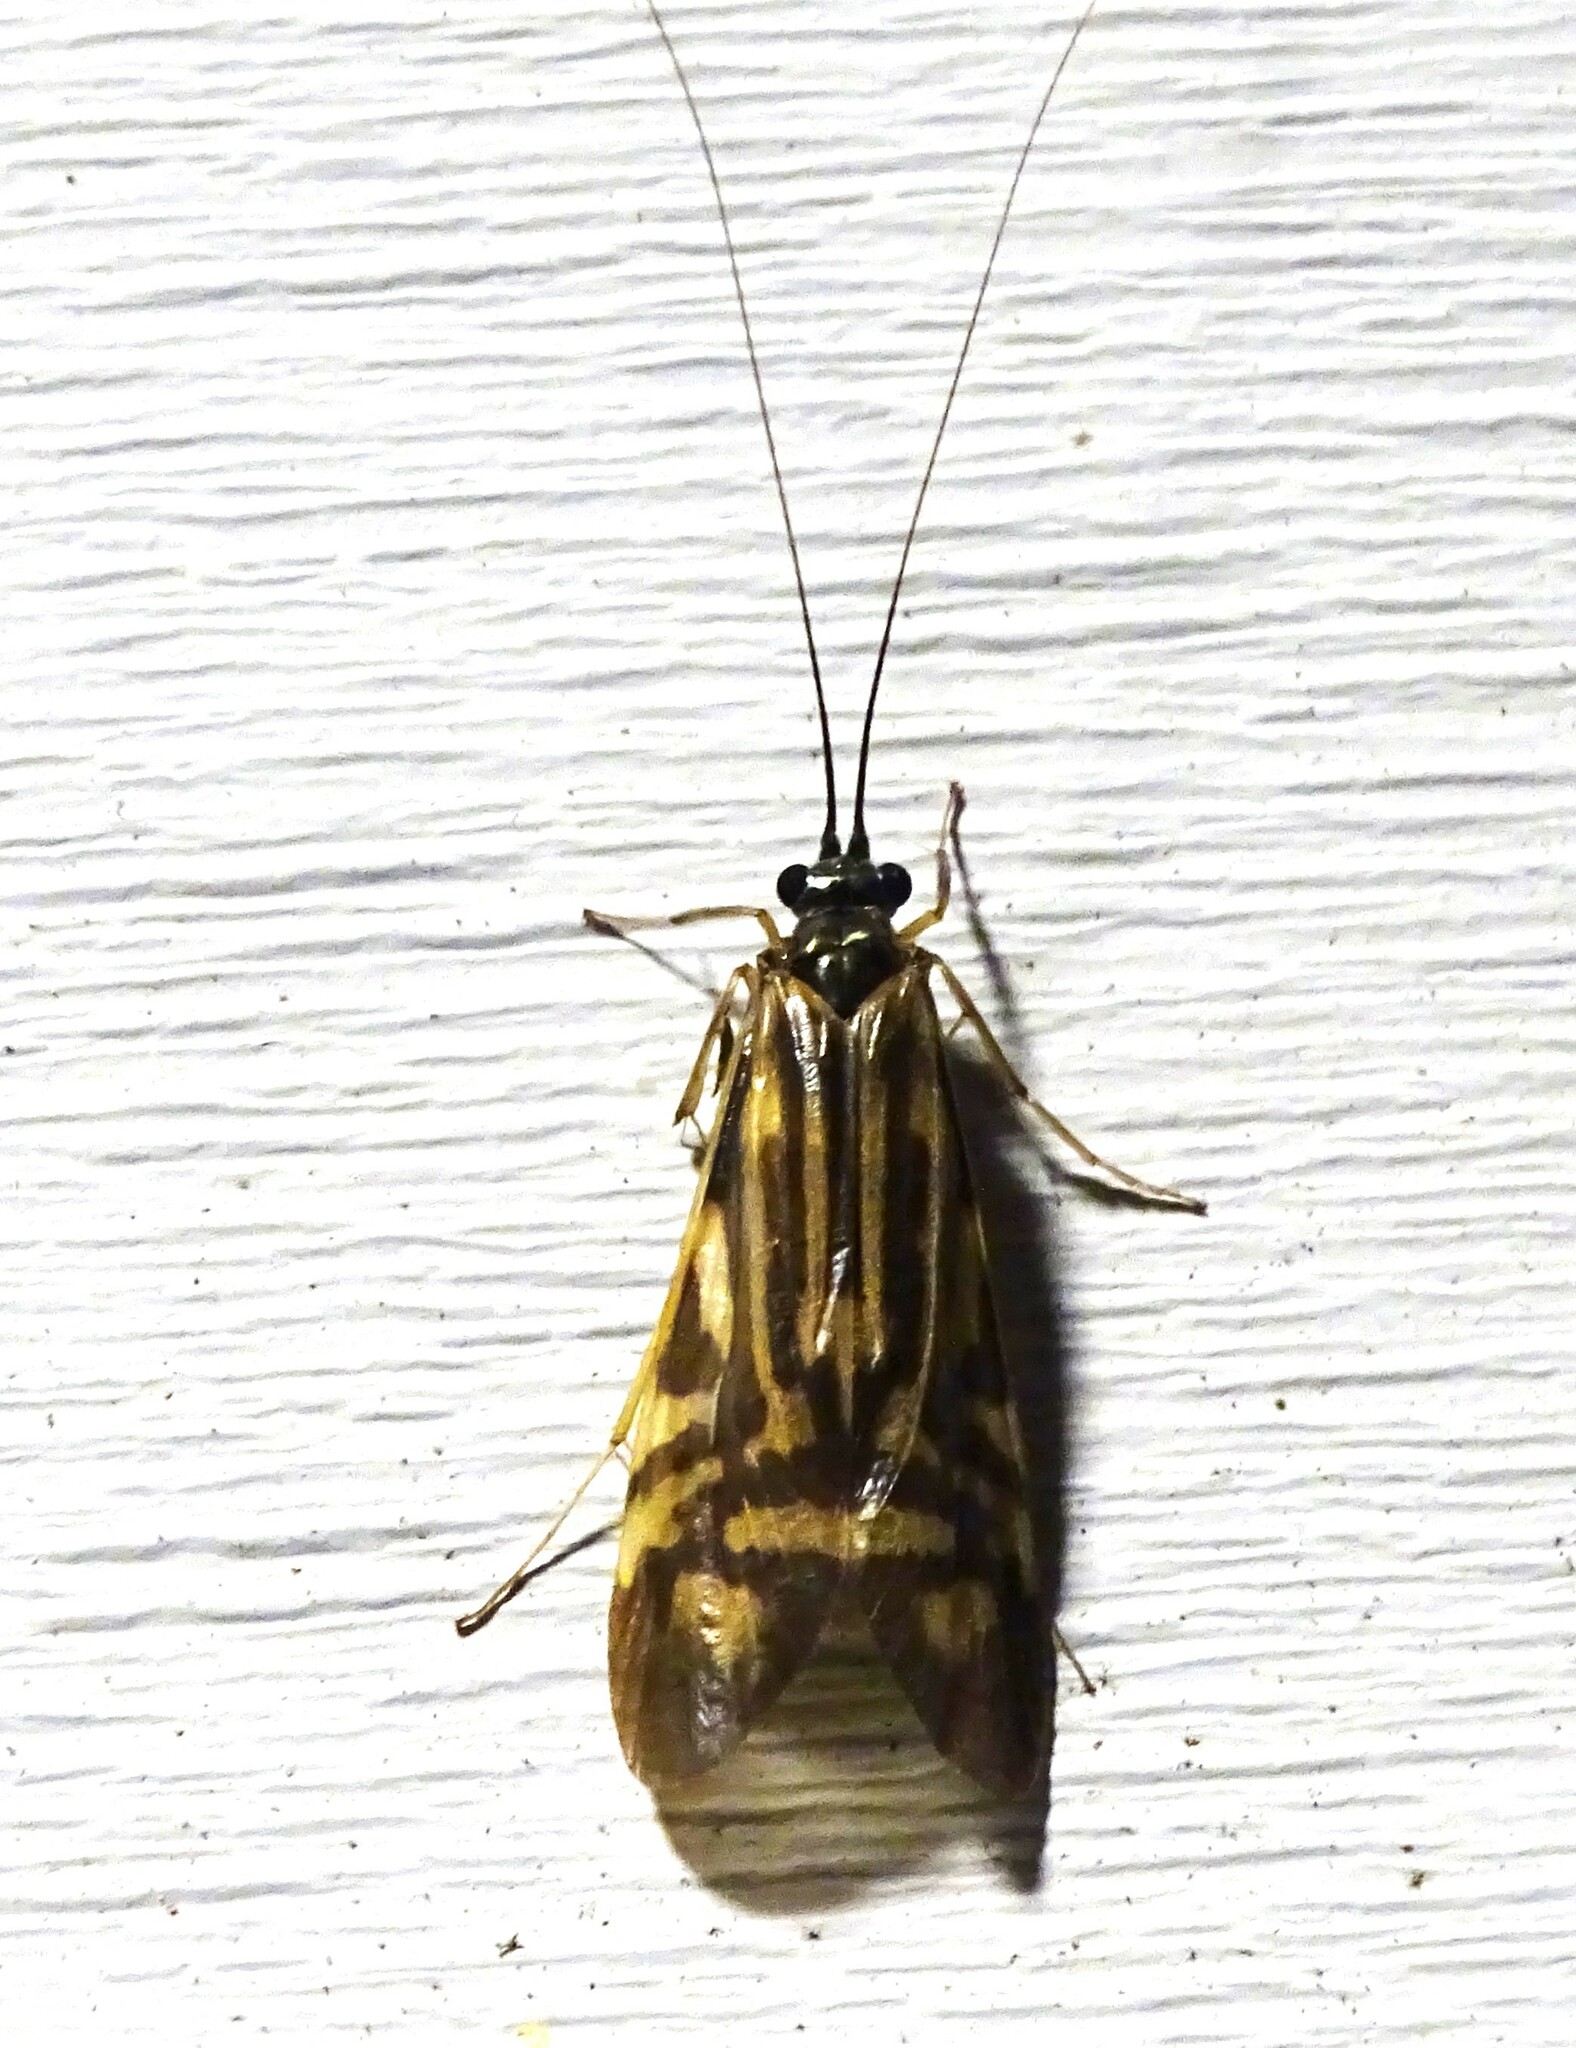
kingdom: Animalia
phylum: Arthropoda
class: Insecta
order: Trichoptera
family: Hydropsychidae
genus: Macrostemum
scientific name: Macrostemum zebratum
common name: Zebra caddisfly
